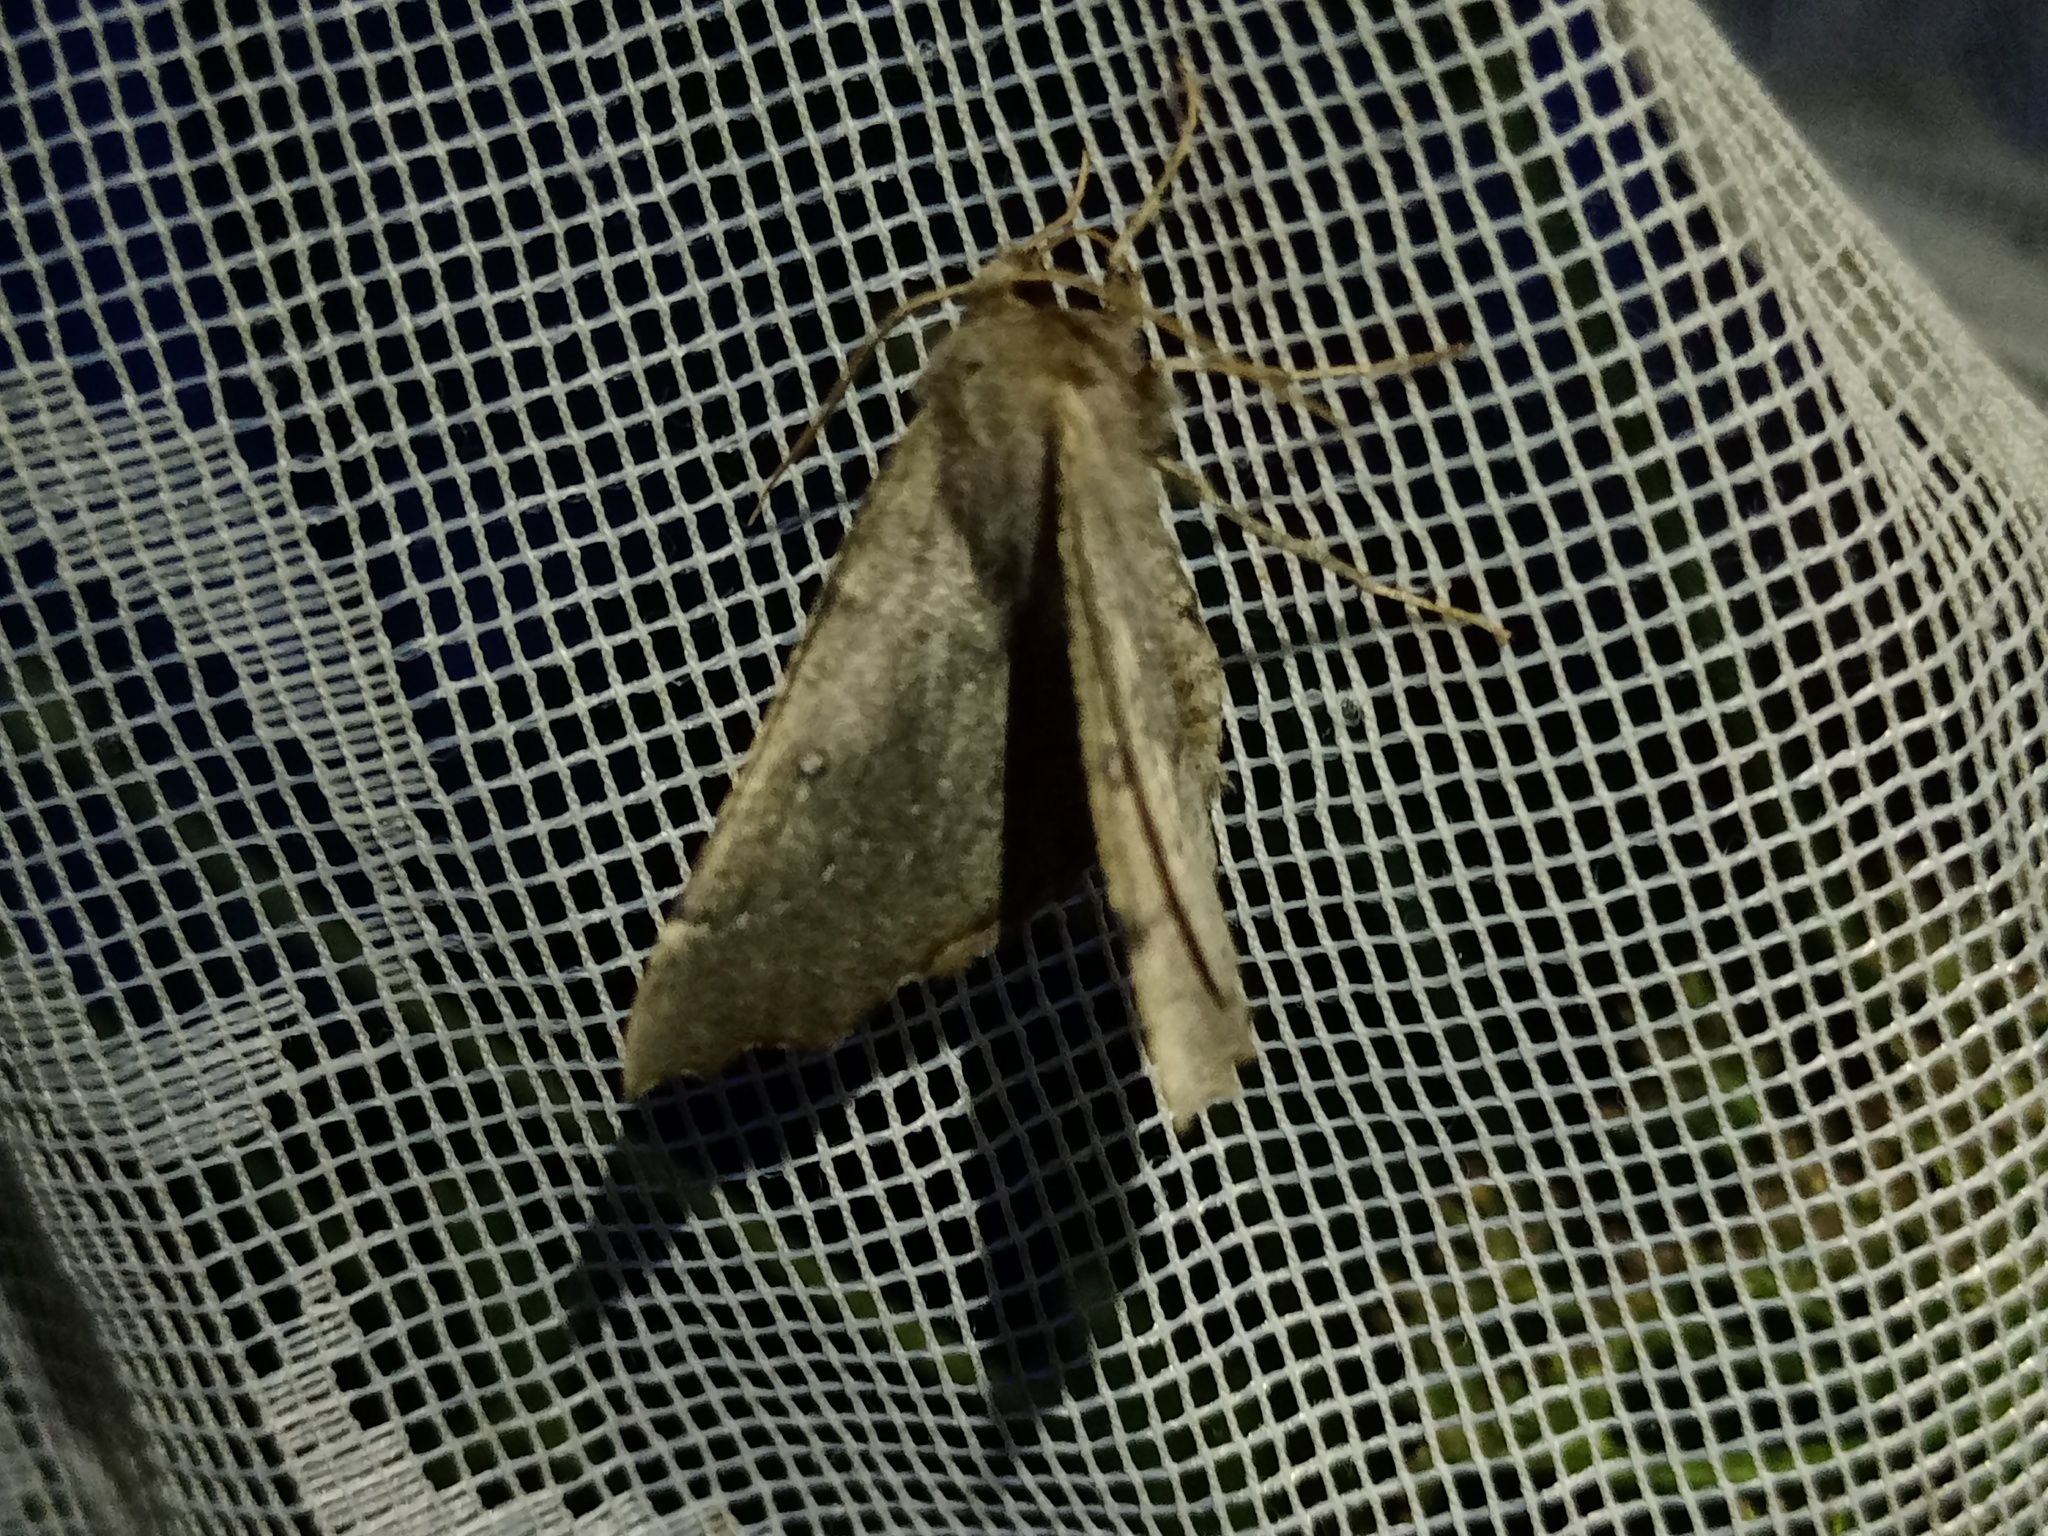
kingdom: Animalia
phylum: Arthropoda
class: Insecta
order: Lepidoptera
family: Geometridae
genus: Odontopera
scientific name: Odontopera bidentata
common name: Scalloped hazel
